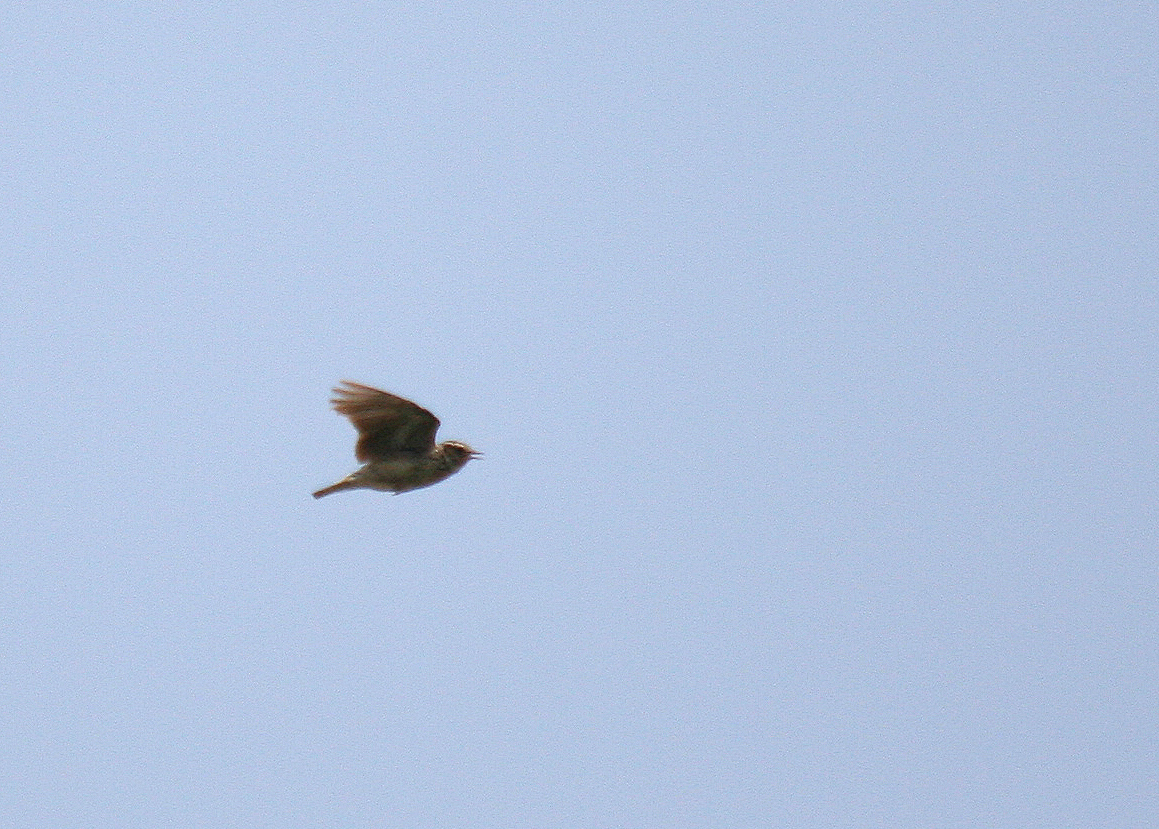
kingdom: Animalia
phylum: Chordata
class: Aves
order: Passeriformes
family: Alaudidae
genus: Lullula
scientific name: Lullula arborea
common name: Woodlark
